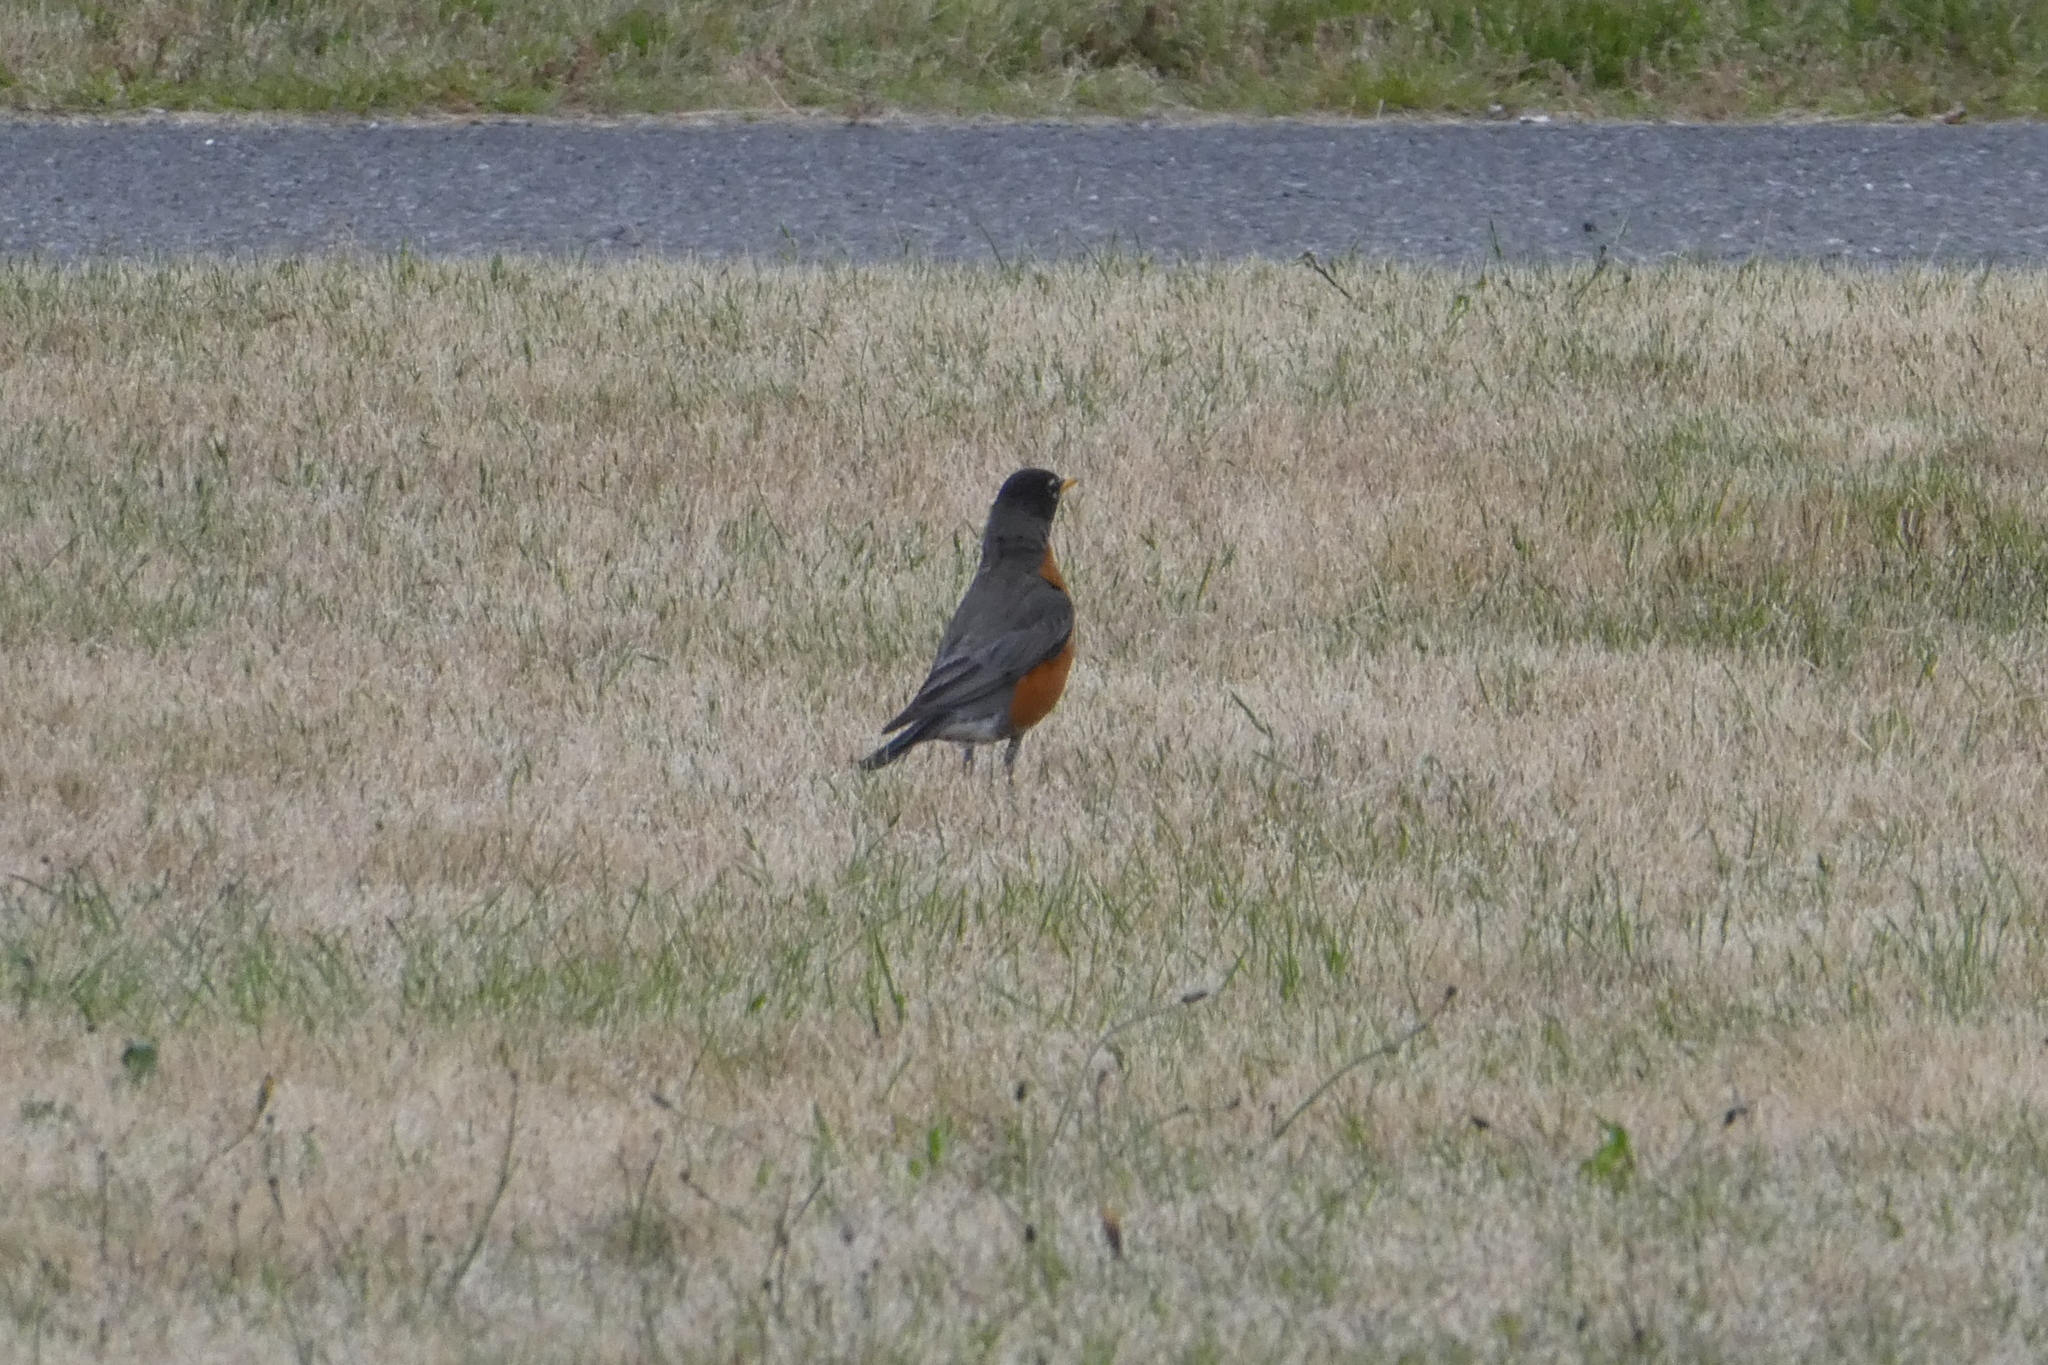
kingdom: Animalia
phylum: Chordata
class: Aves
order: Passeriformes
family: Turdidae
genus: Turdus
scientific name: Turdus migratorius
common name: American robin
